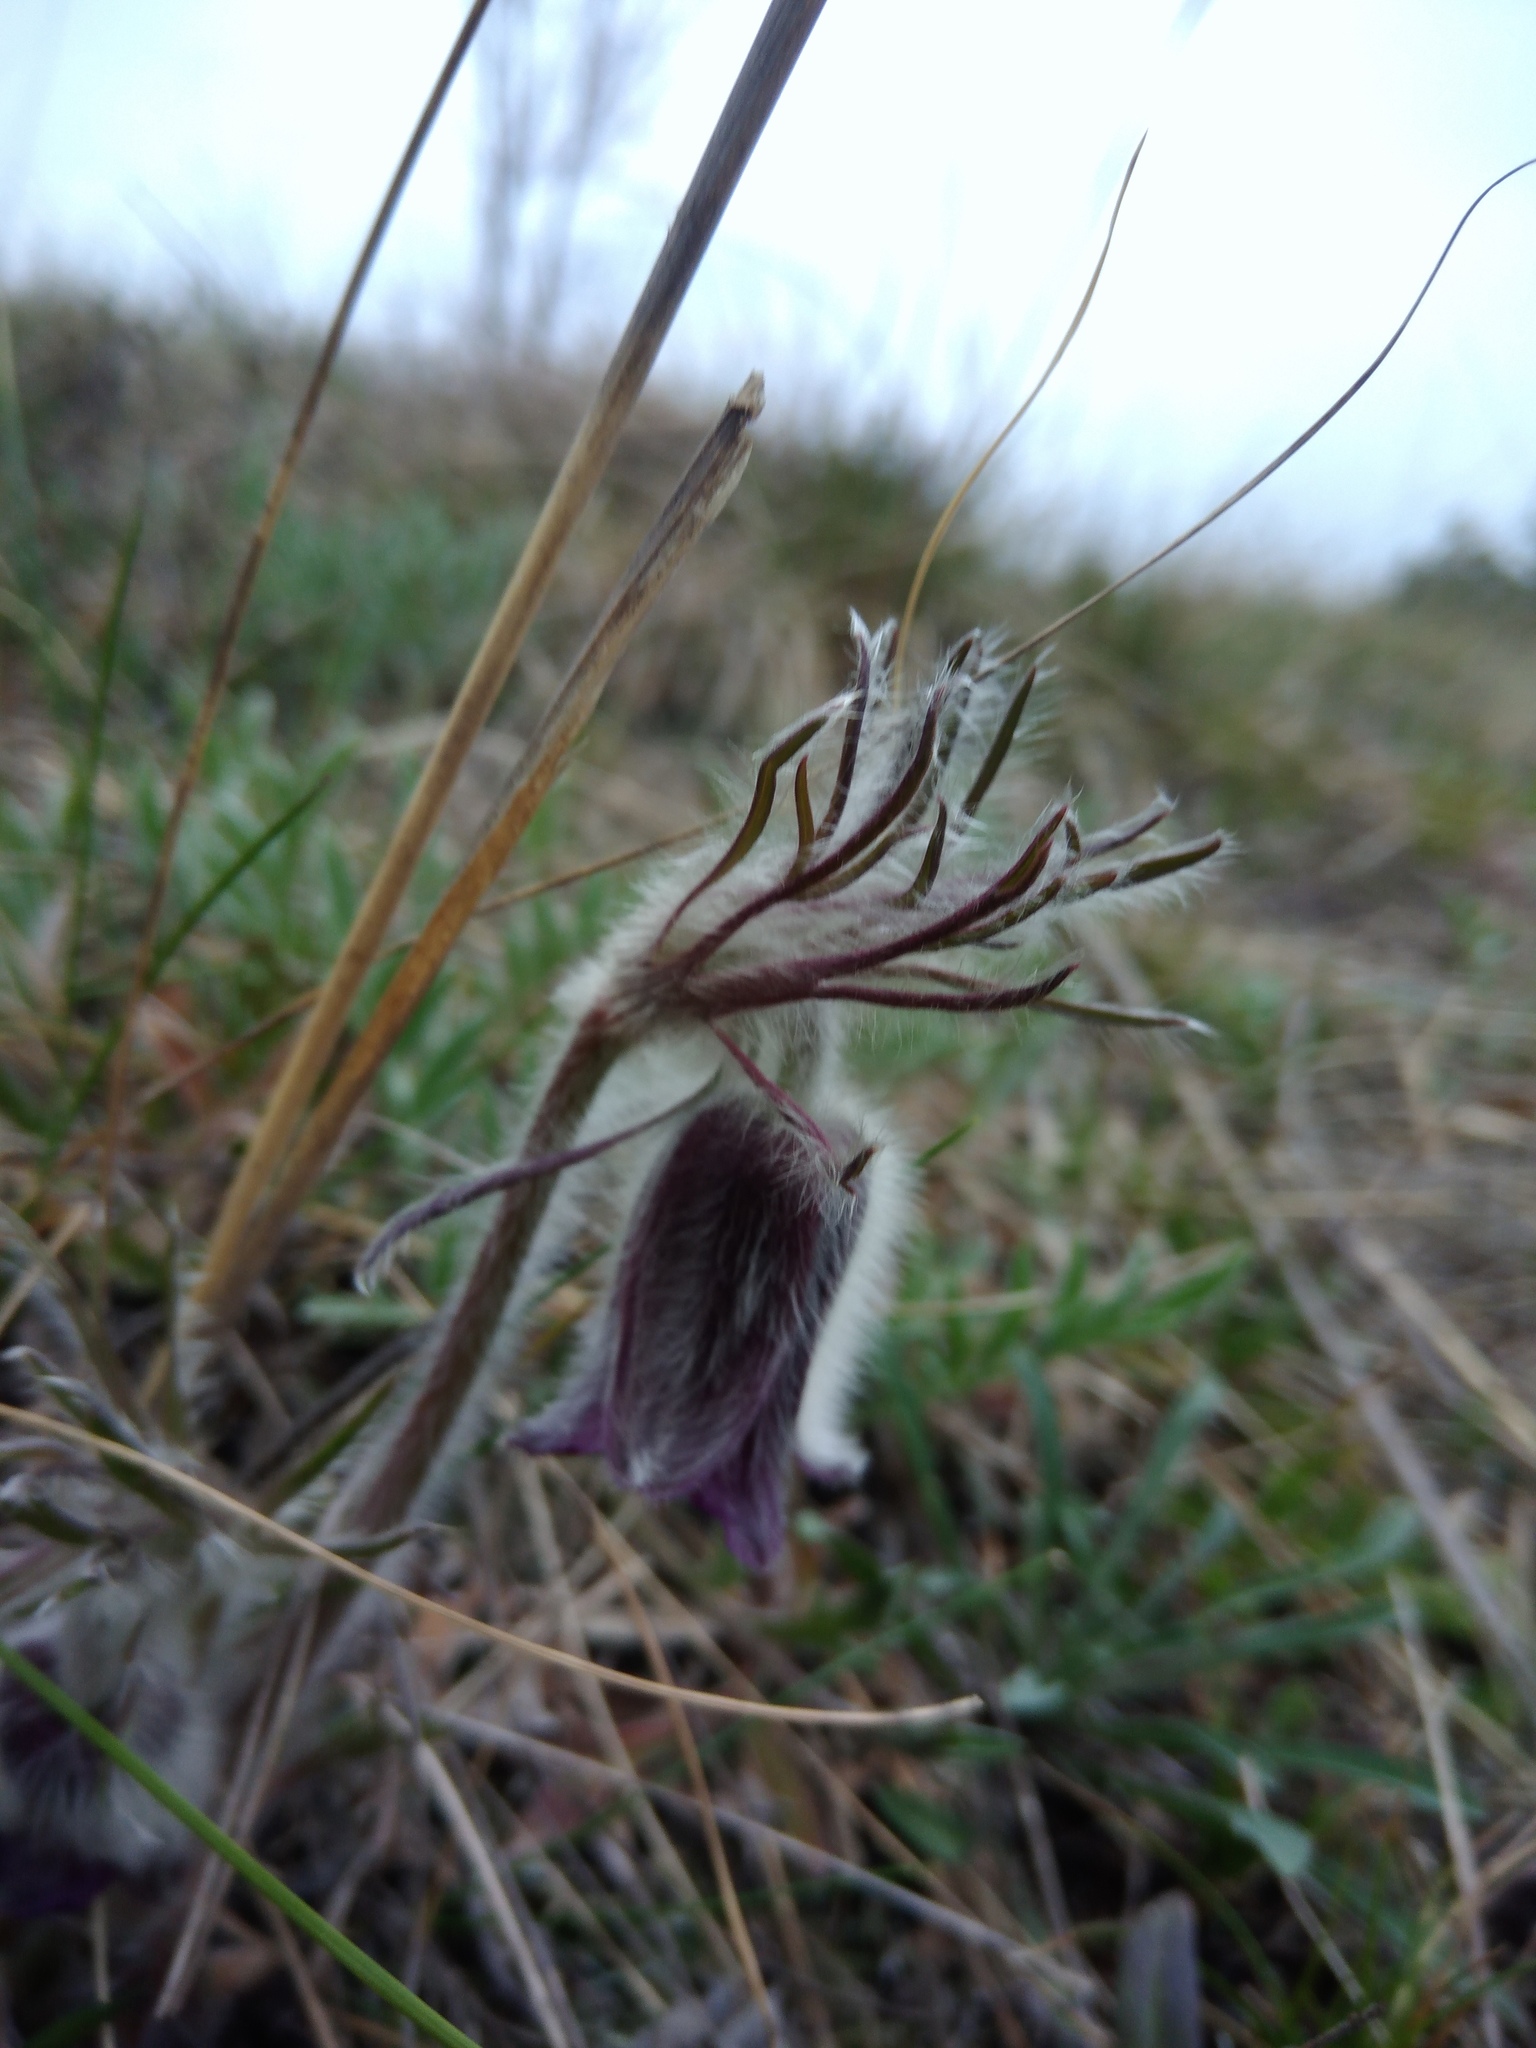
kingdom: Plantae
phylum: Tracheophyta
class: Magnoliopsida
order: Ranunculales
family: Ranunculaceae
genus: Pulsatilla
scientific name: Pulsatilla pratensis
